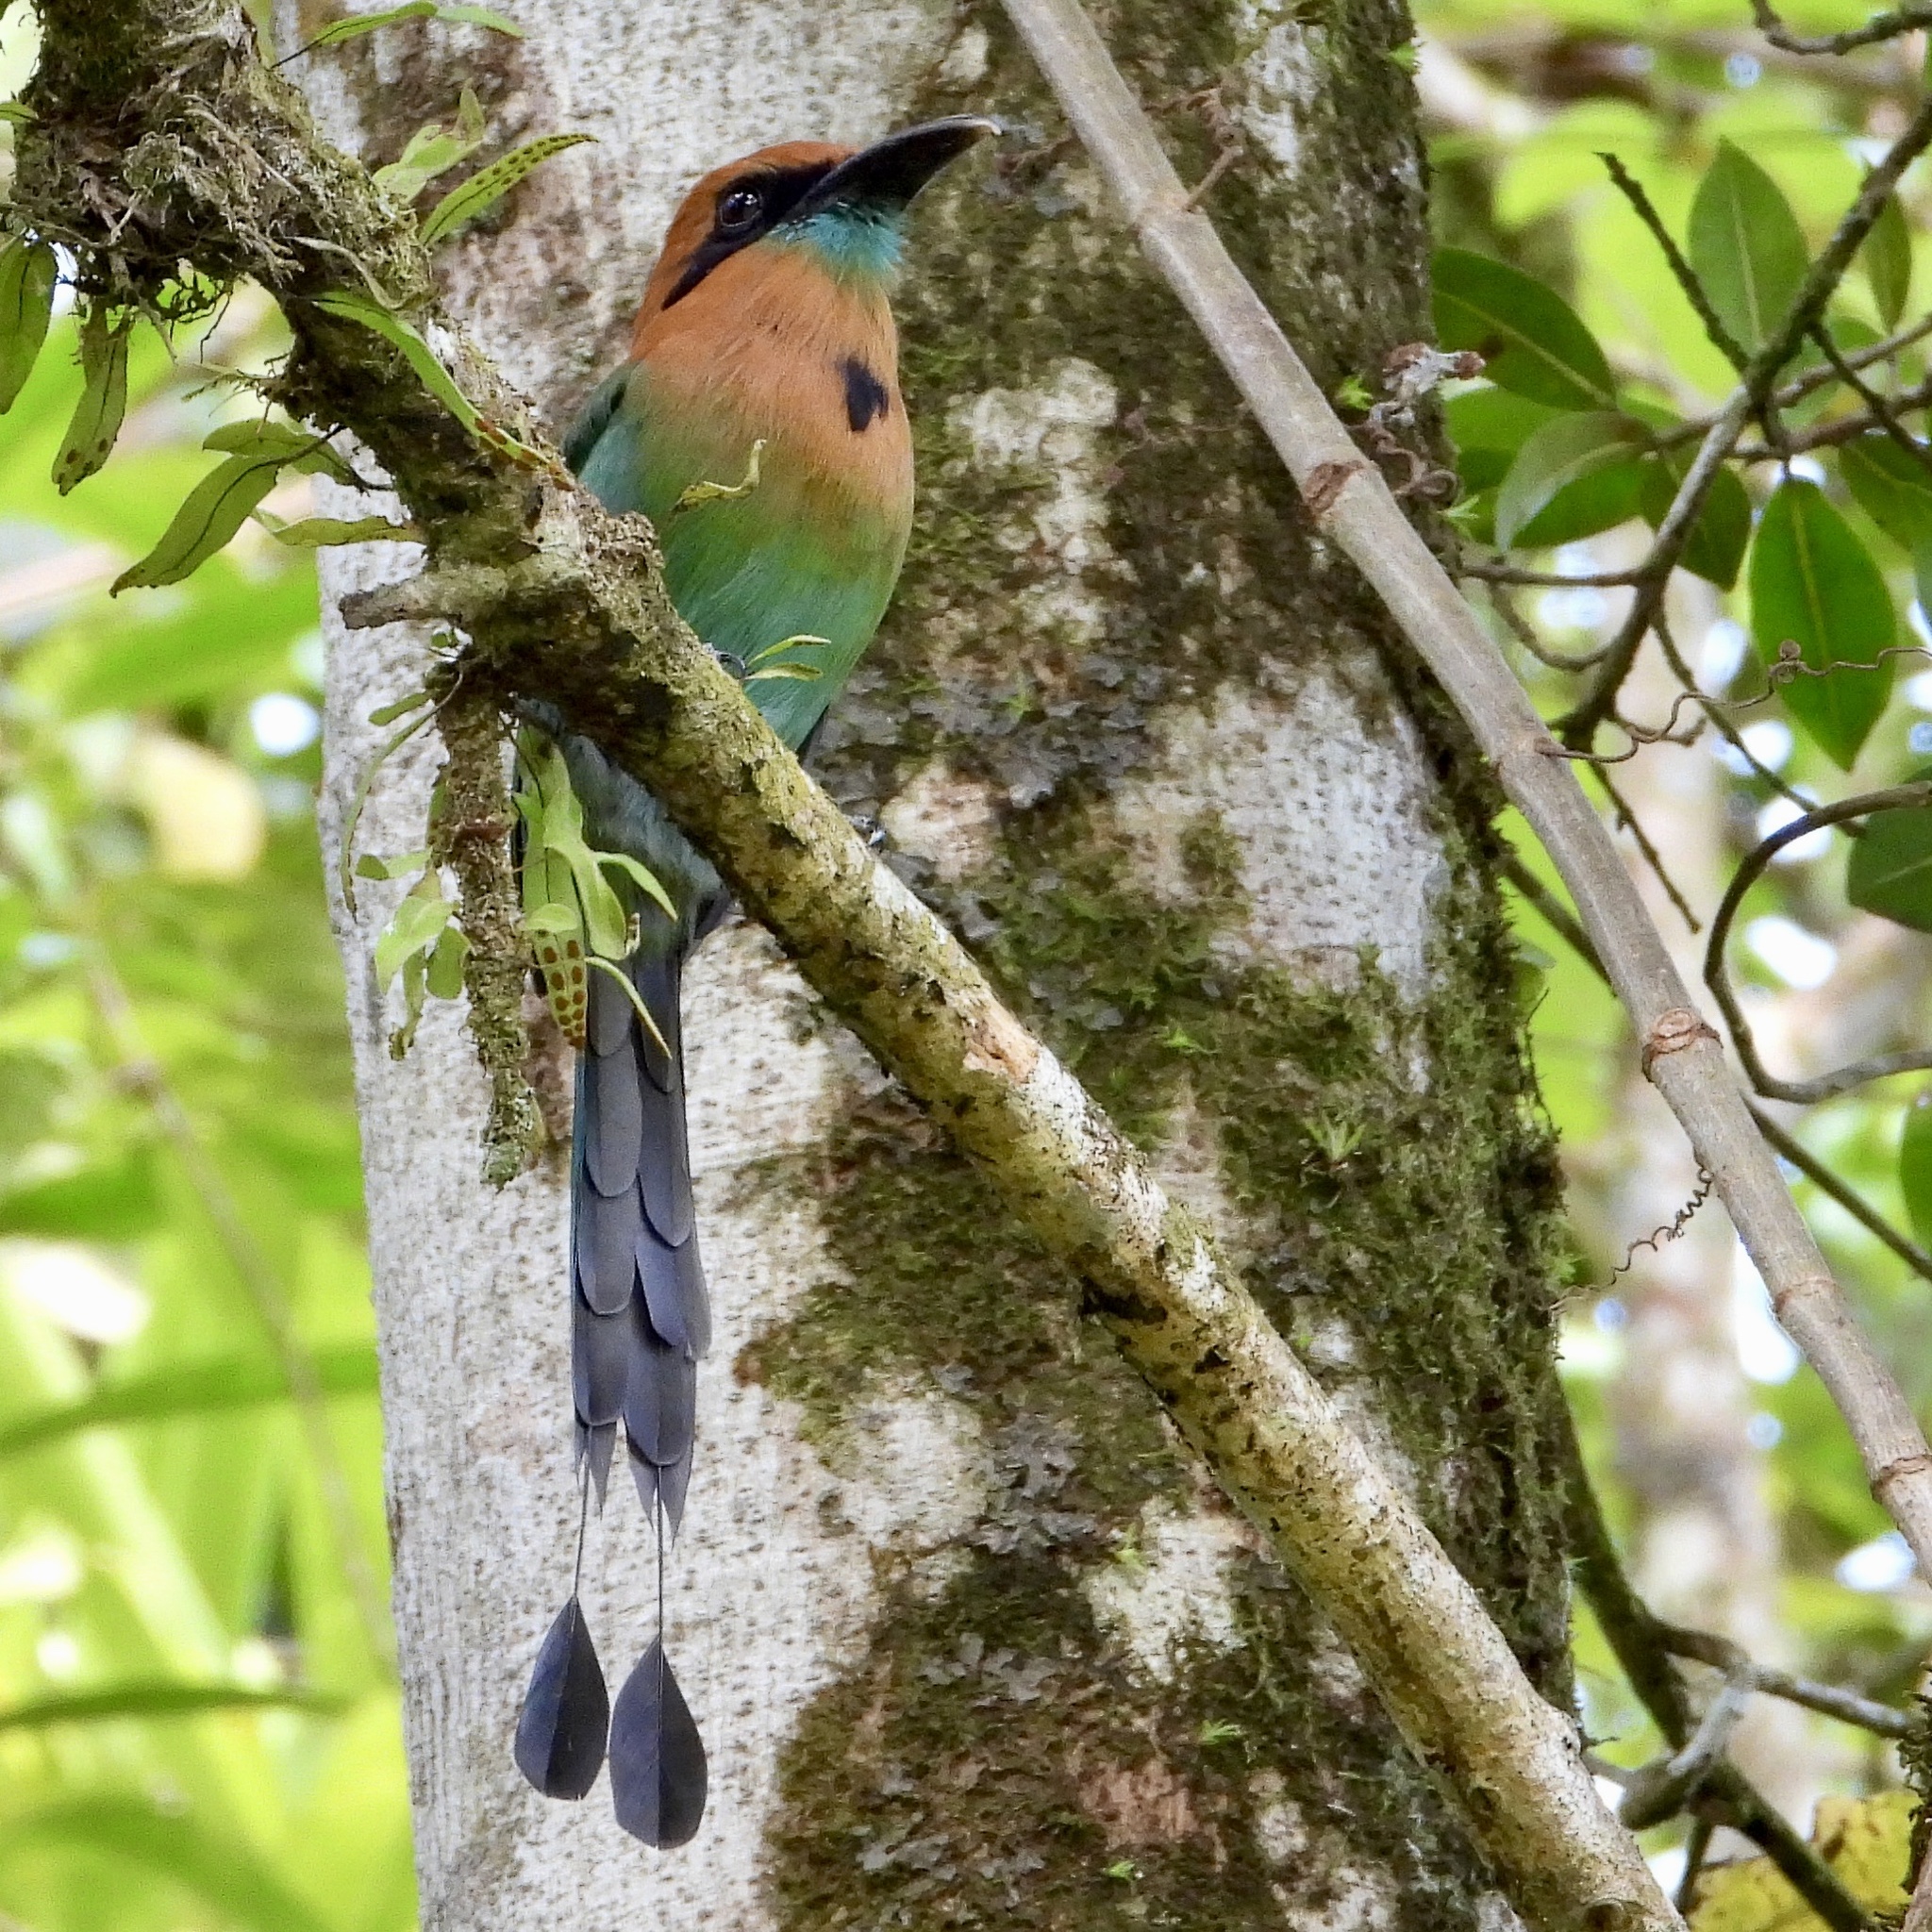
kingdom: Animalia
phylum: Chordata
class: Aves
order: Coraciiformes
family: Momotidae
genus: Electron
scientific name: Electron platyrhynchum
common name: Broad-billed motmot
